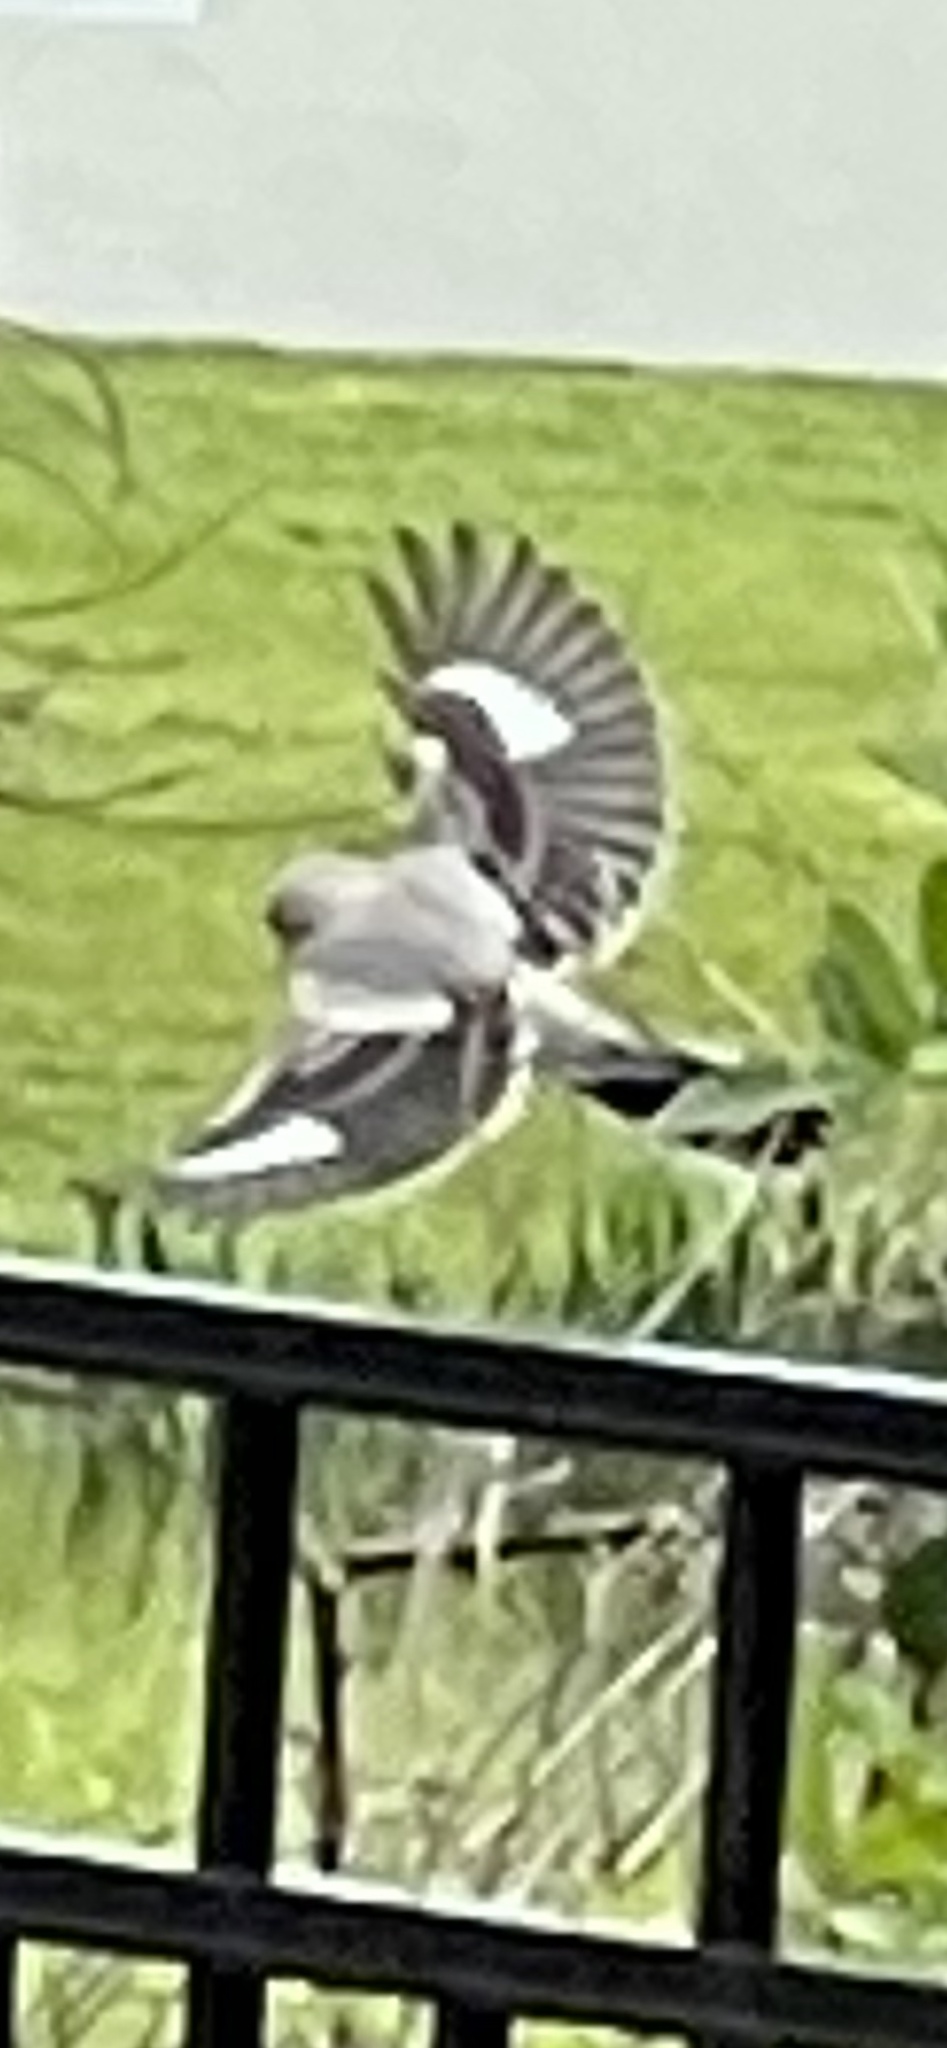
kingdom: Animalia
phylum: Chordata
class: Aves
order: Passeriformes
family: Laniidae
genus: Lanius
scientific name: Lanius ludovicianus
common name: Loggerhead shrike
